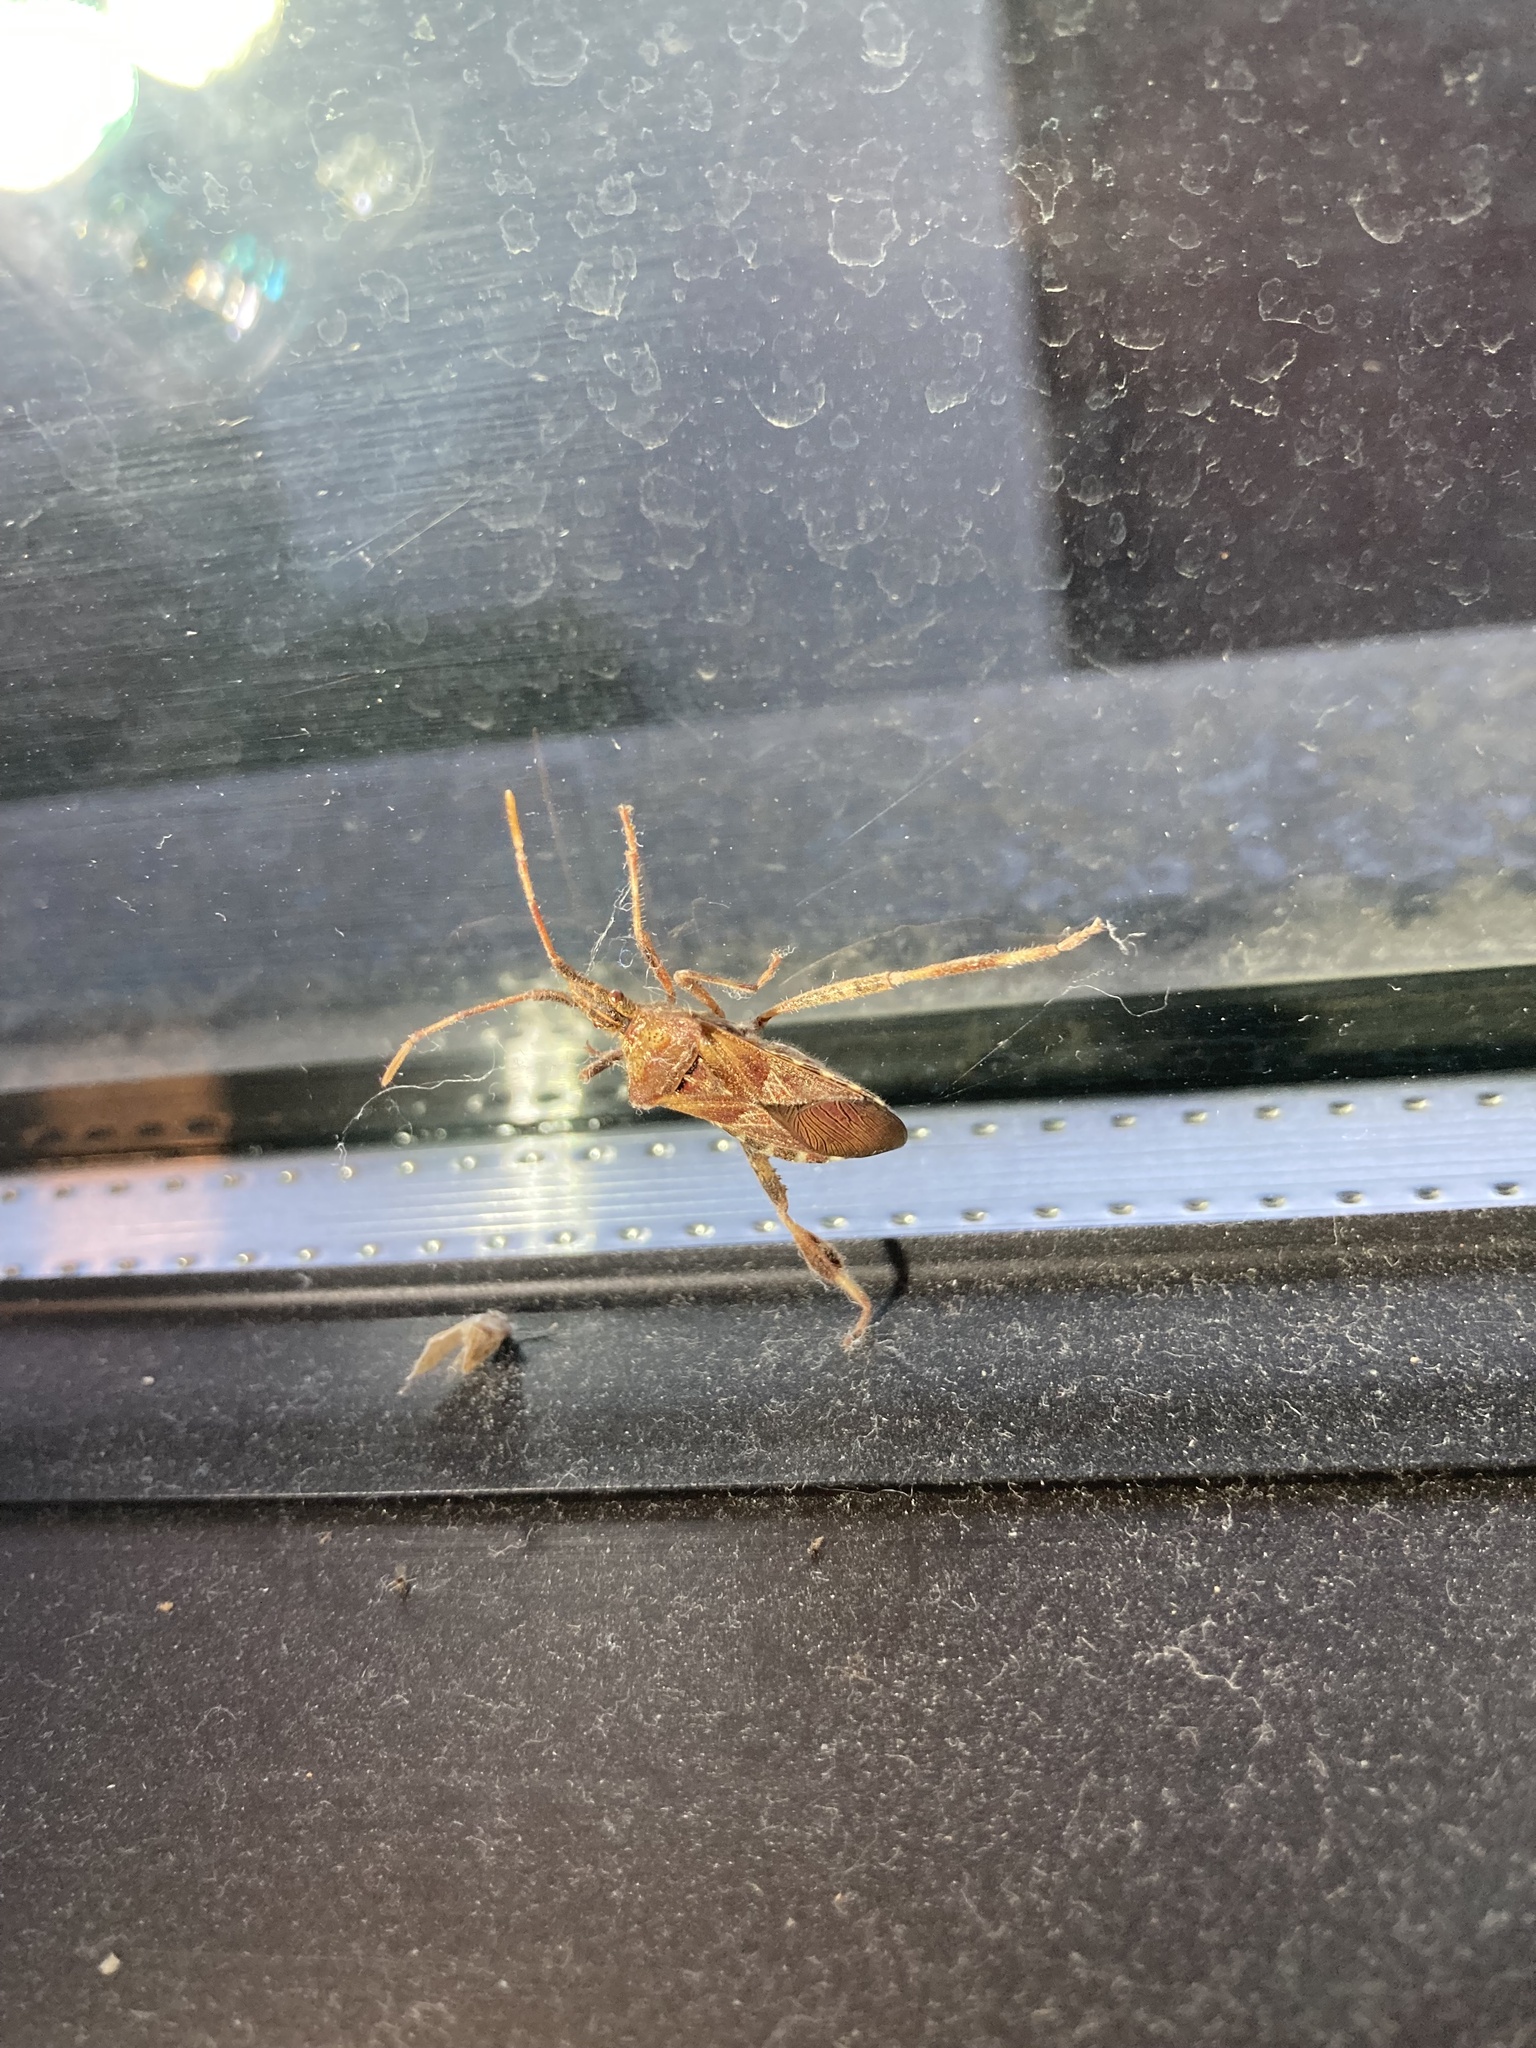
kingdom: Animalia
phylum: Arthropoda
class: Insecta
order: Hemiptera
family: Coreidae
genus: Leptoglossus
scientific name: Leptoglossus occidentalis
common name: Western conifer-seed bug
